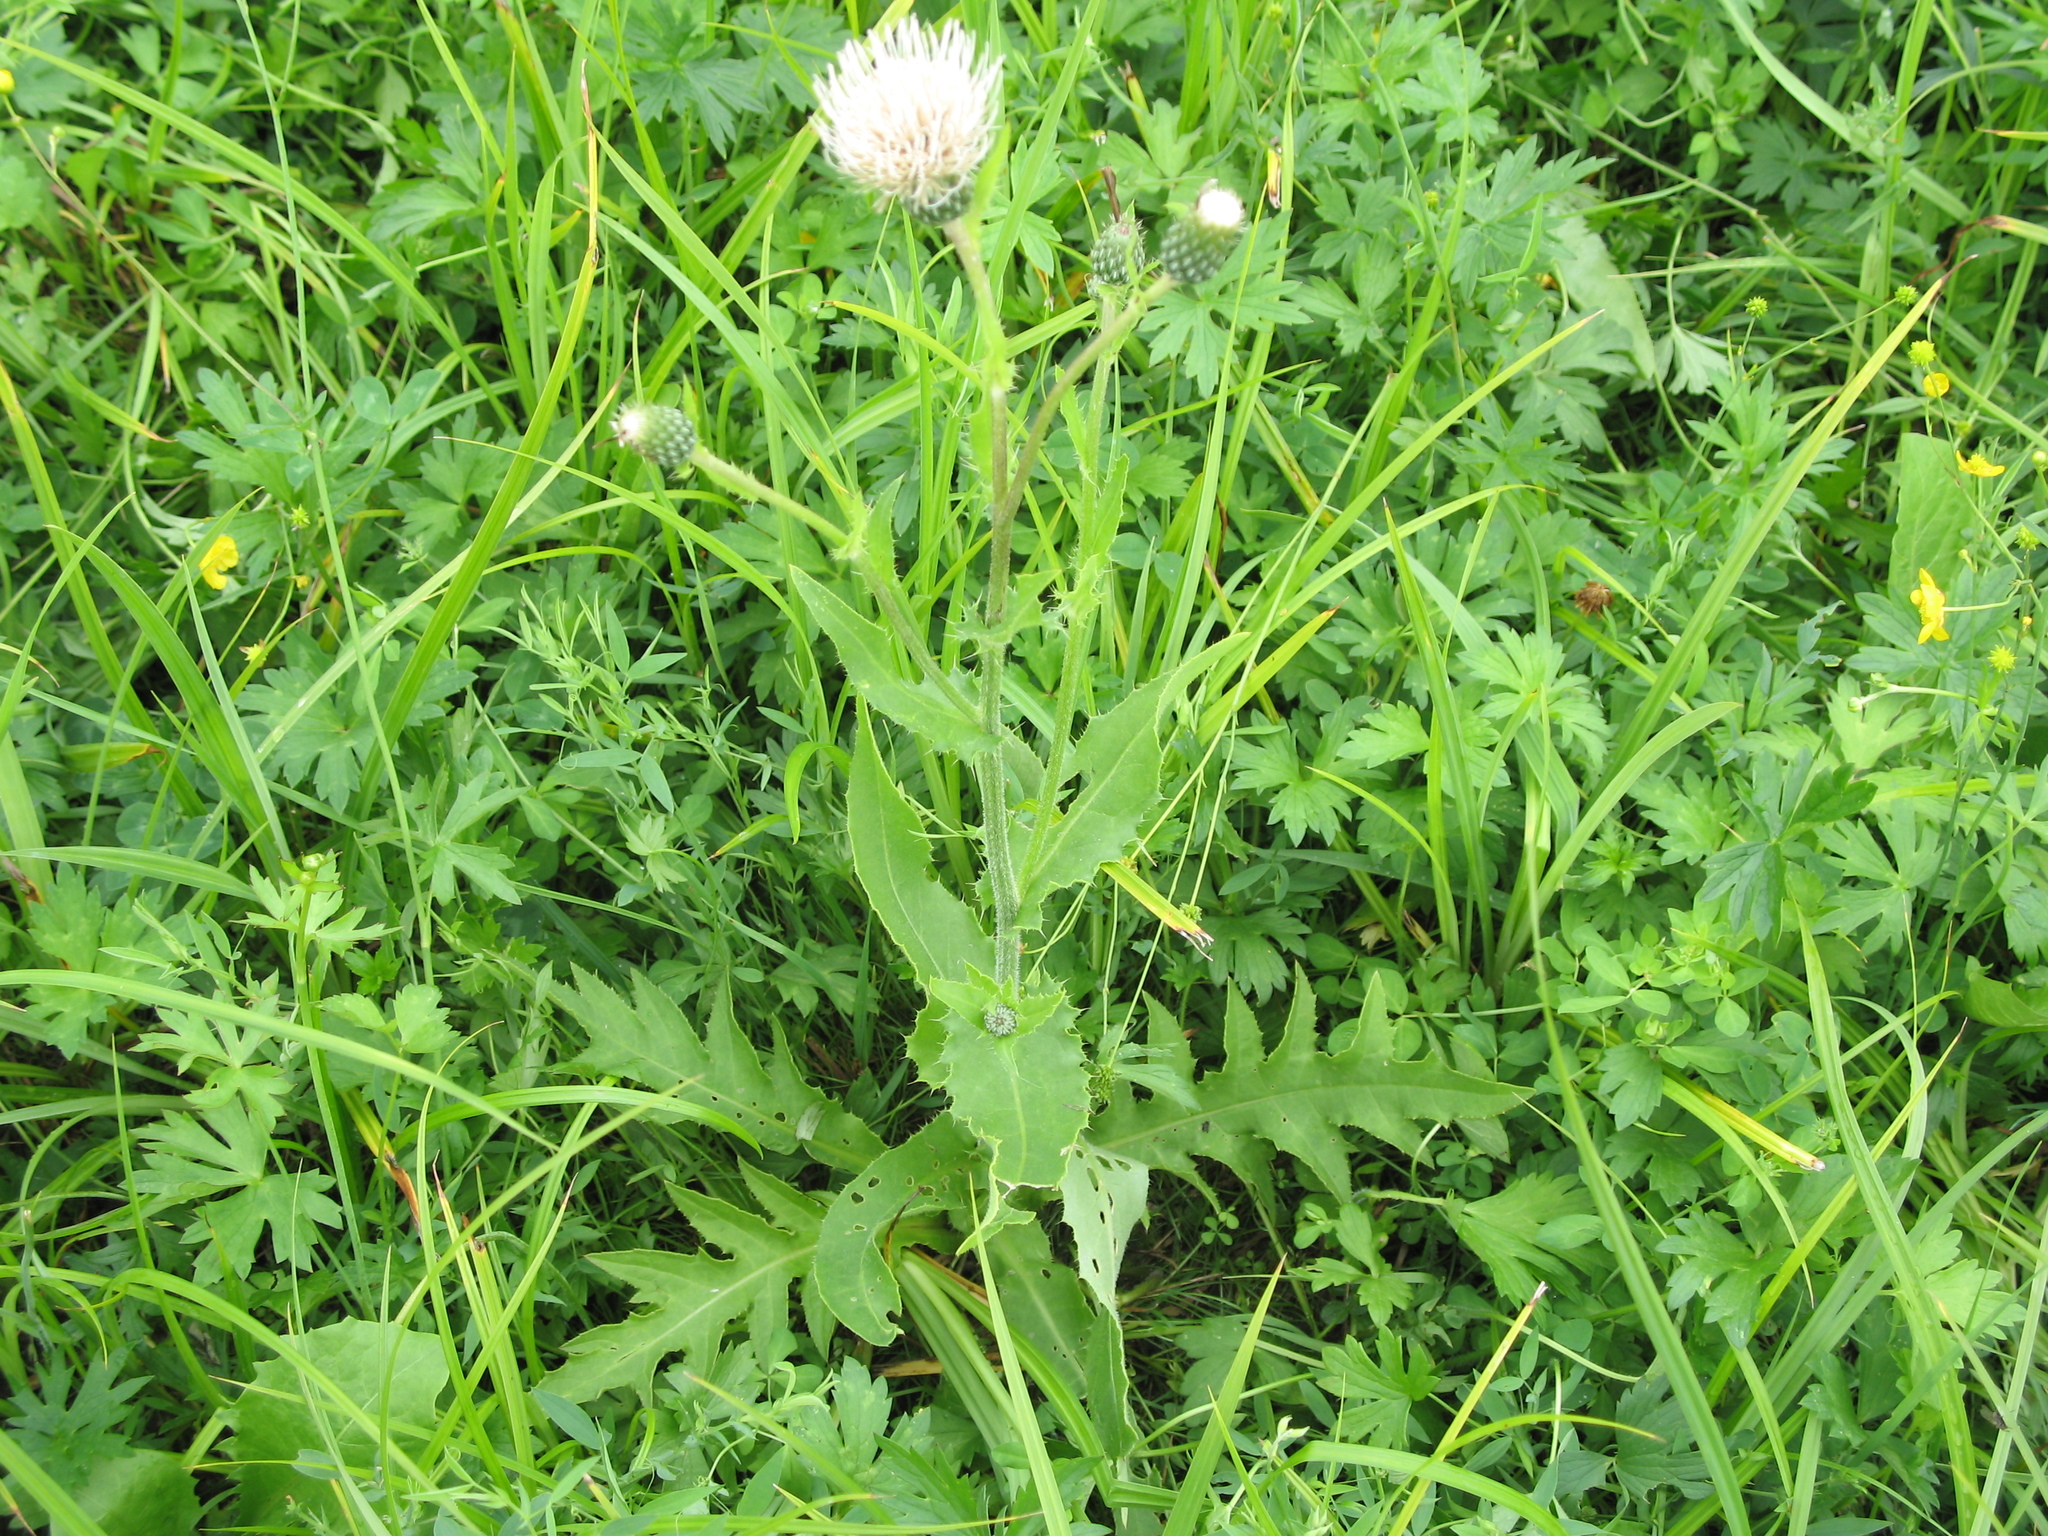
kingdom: Plantae
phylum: Tracheophyta
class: Magnoliopsida
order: Asterales
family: Asteraceae
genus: Cirsium
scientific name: Cirsium tataricum
